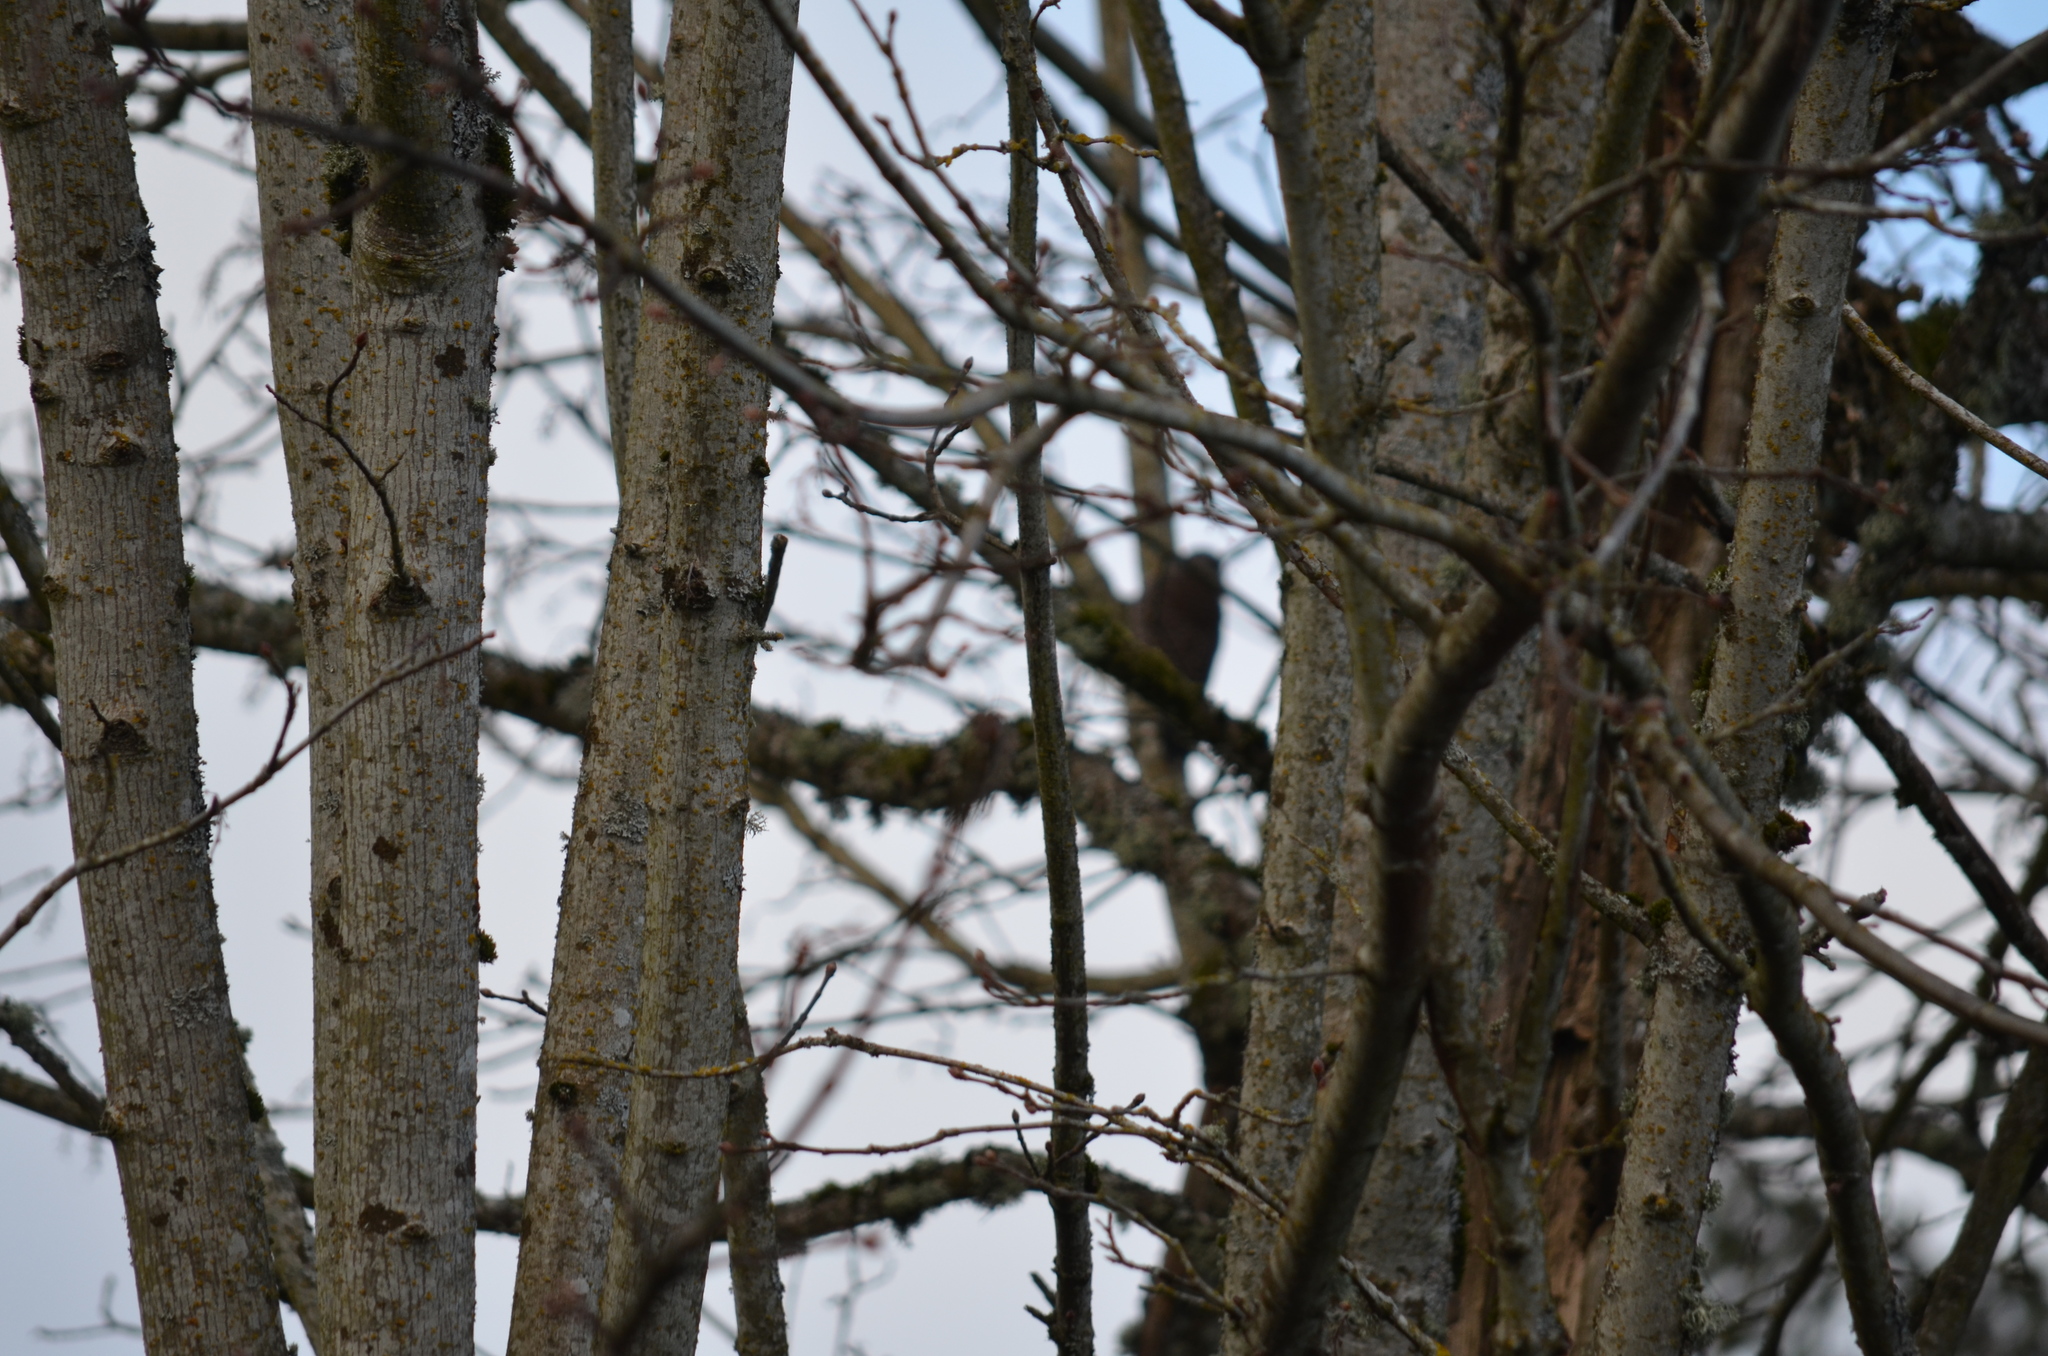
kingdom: Animalia
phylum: Chordata
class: Aves
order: Piciformes
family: Picidae
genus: Colaptes
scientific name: Colaptes auratus
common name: Northern flicker
